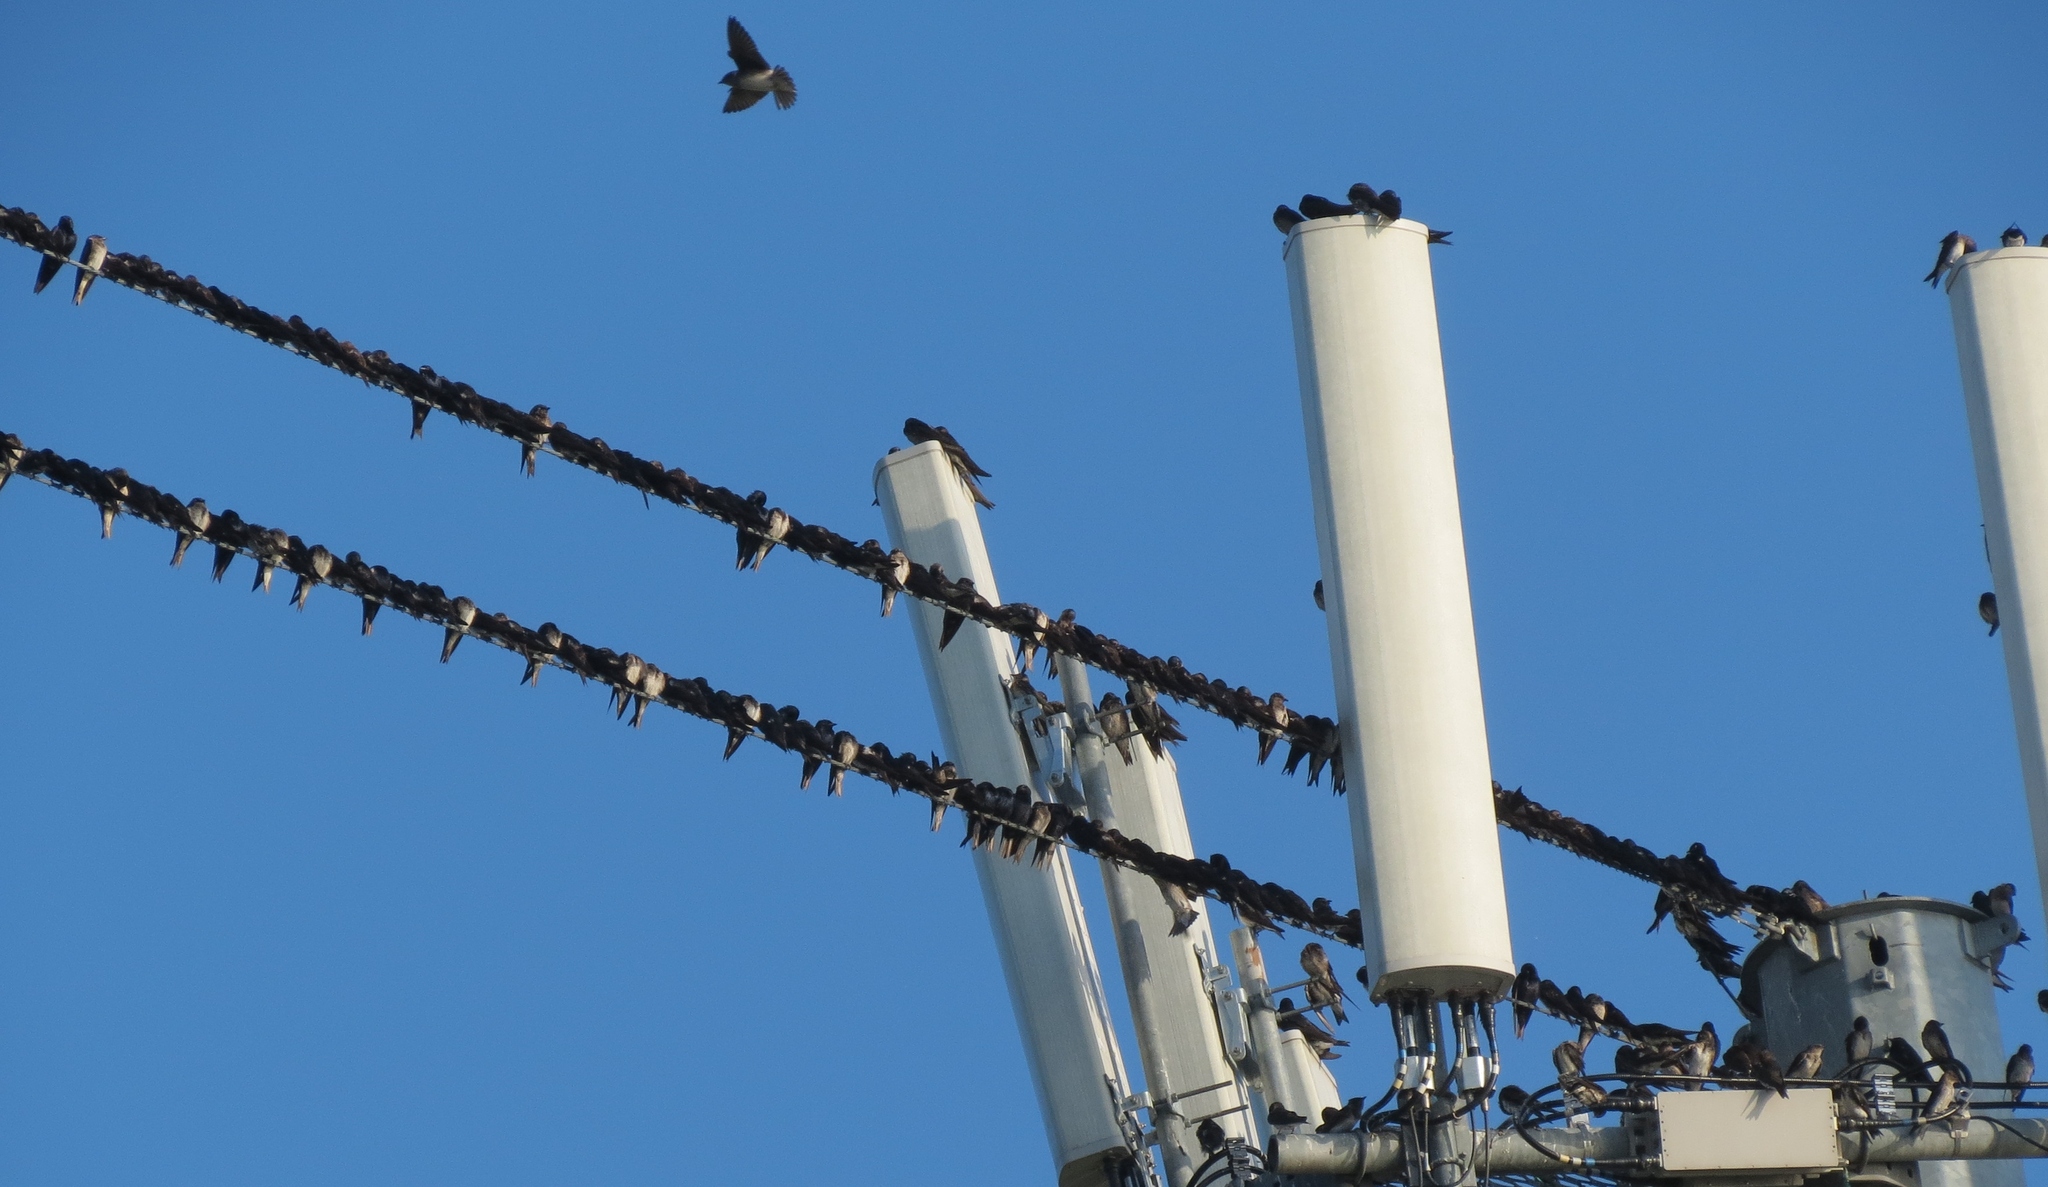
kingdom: Animalia
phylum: Chordata
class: Aves
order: Passeriformes
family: Hirundinidae
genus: Progne
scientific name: Progne subis
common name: Purple martin
